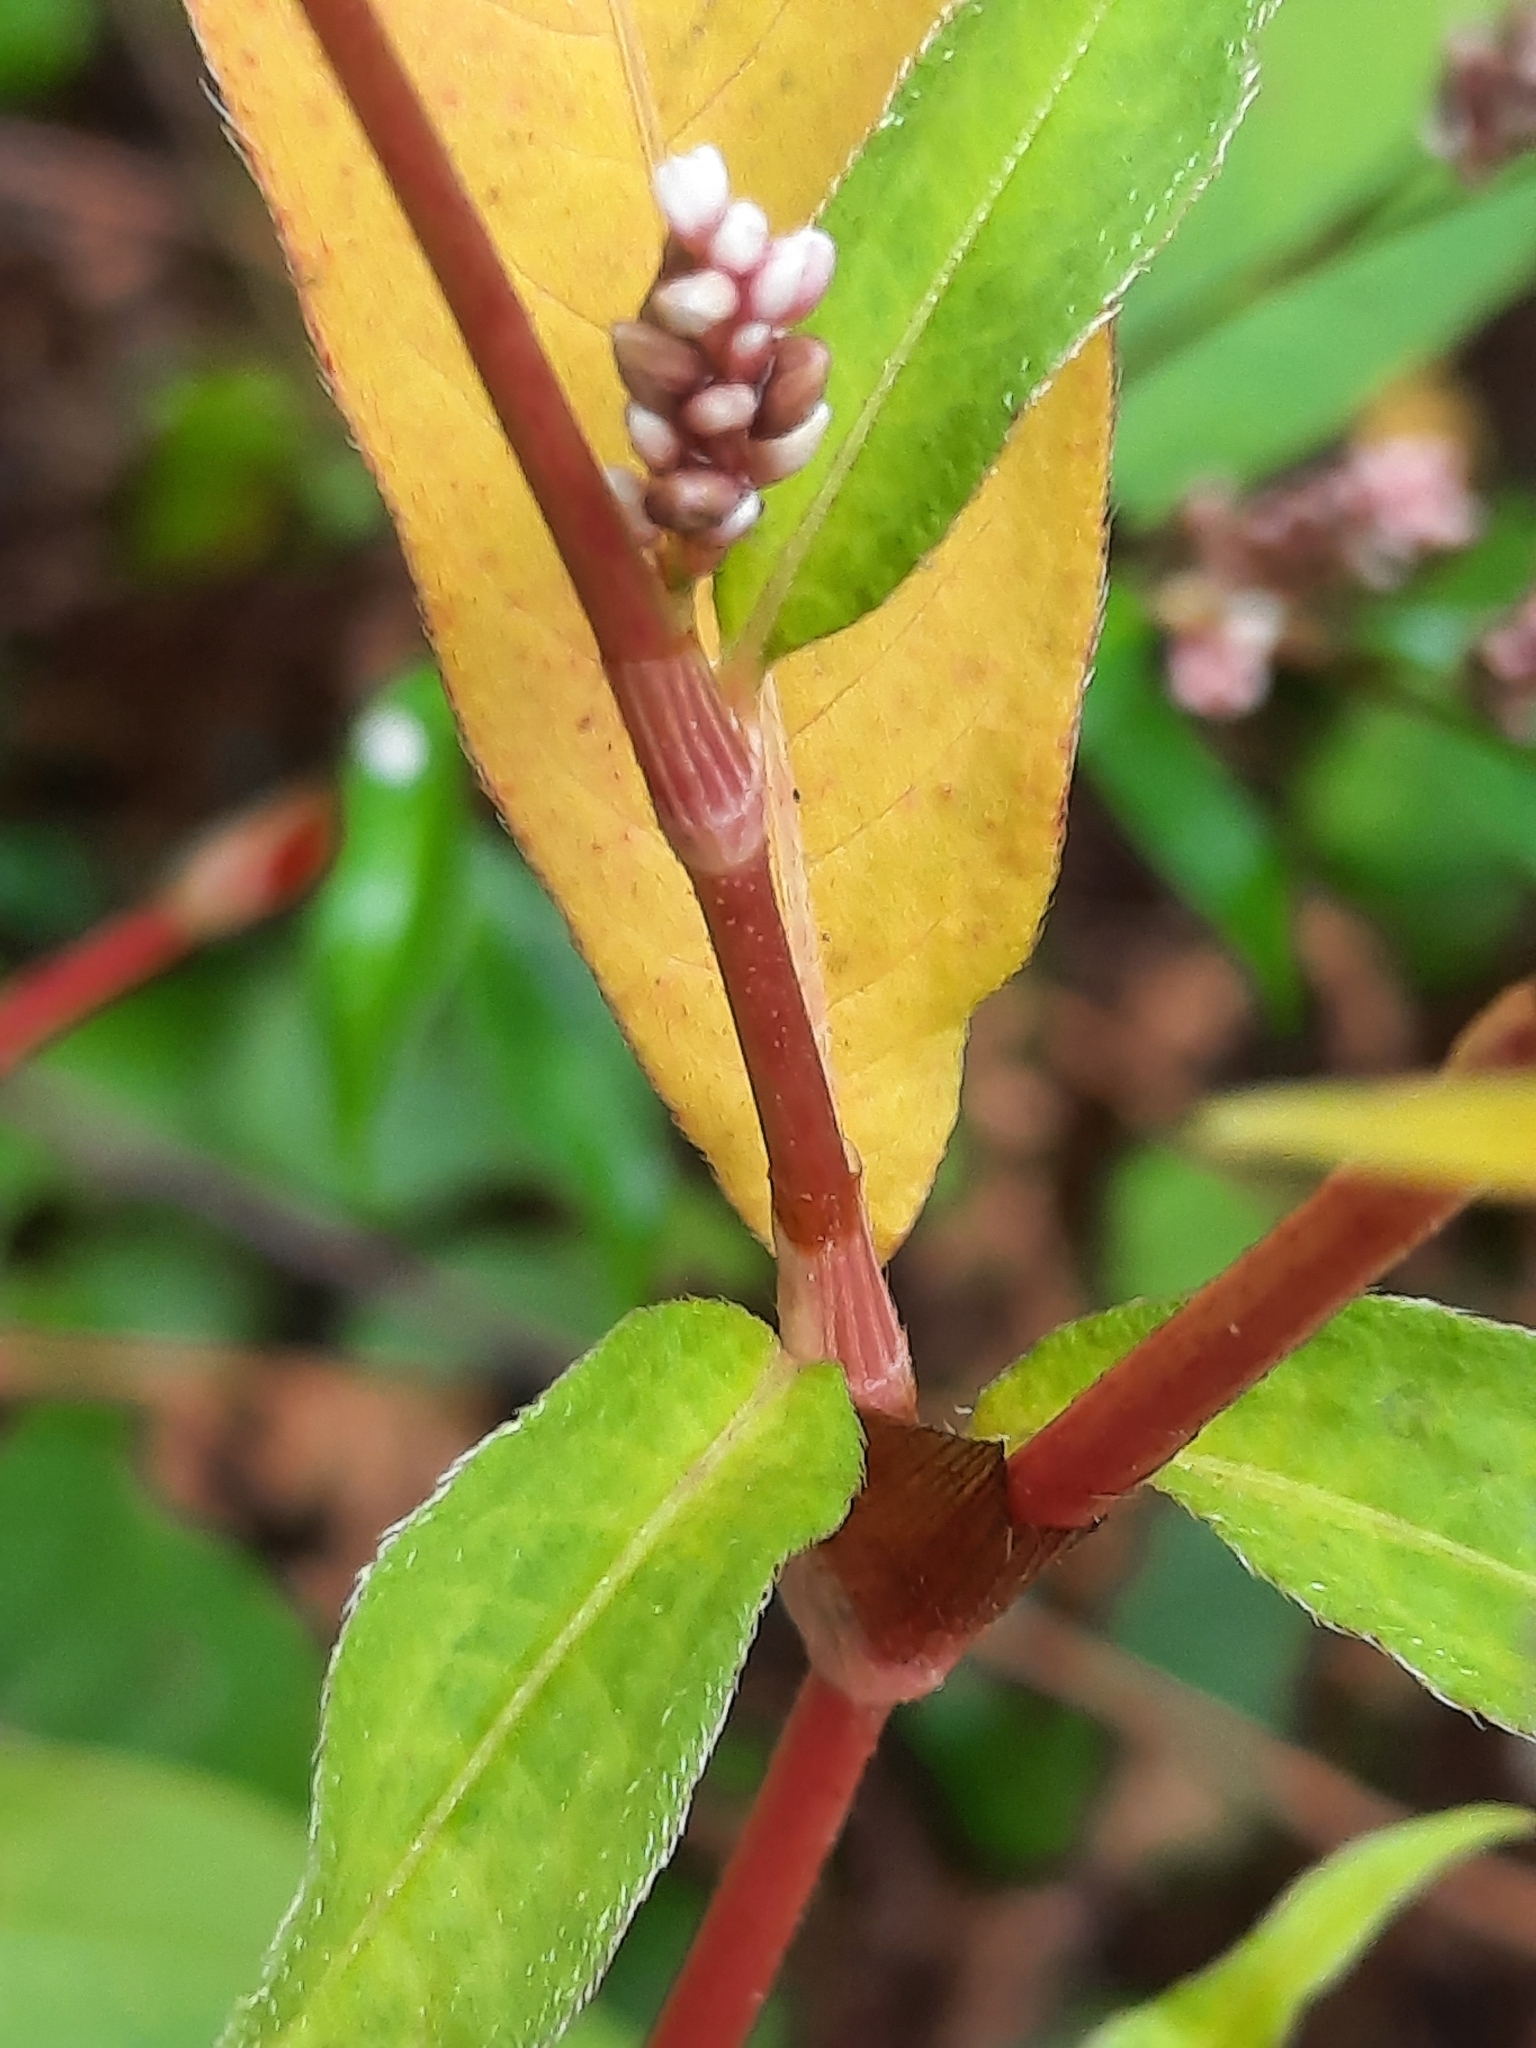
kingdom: Plantae
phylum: Tracheophyta
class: Magnoliopsida
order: Caryophyllales
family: Polygonaceae
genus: Persicaria
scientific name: Persicaria extremiorientalis
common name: Far-eastern smartweed
